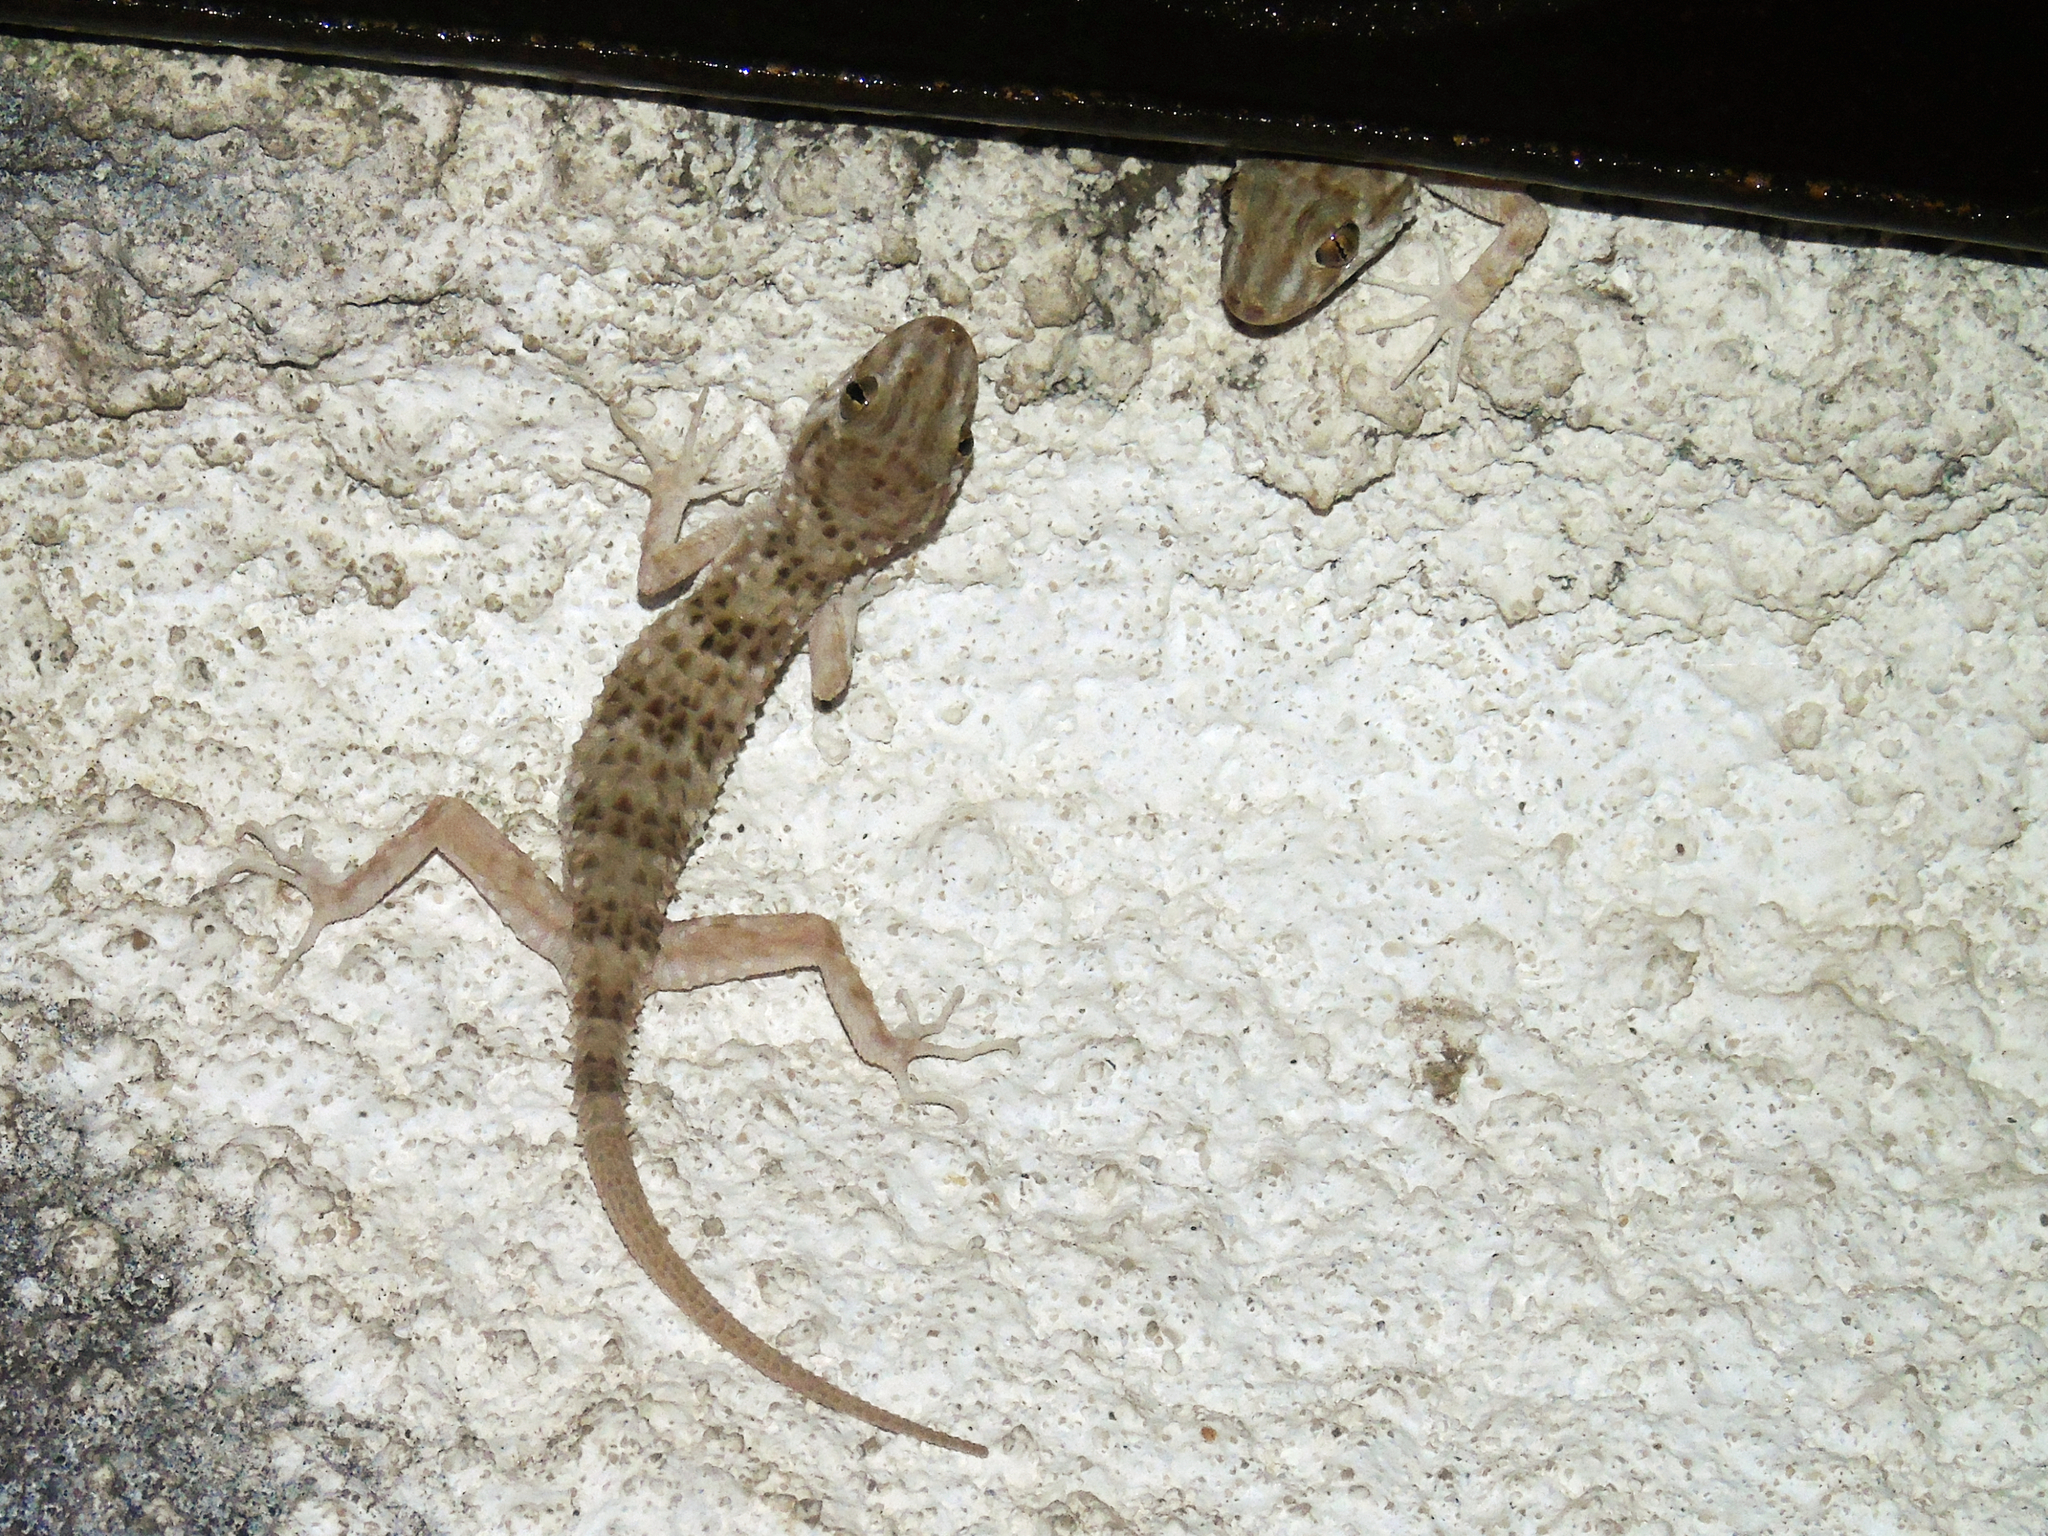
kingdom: Animalia
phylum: Chordata
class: Squamata
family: Gekkonidae
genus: Tenuidactylus
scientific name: Tenuidactylus caspius
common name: Caspian bent-toed gecko
